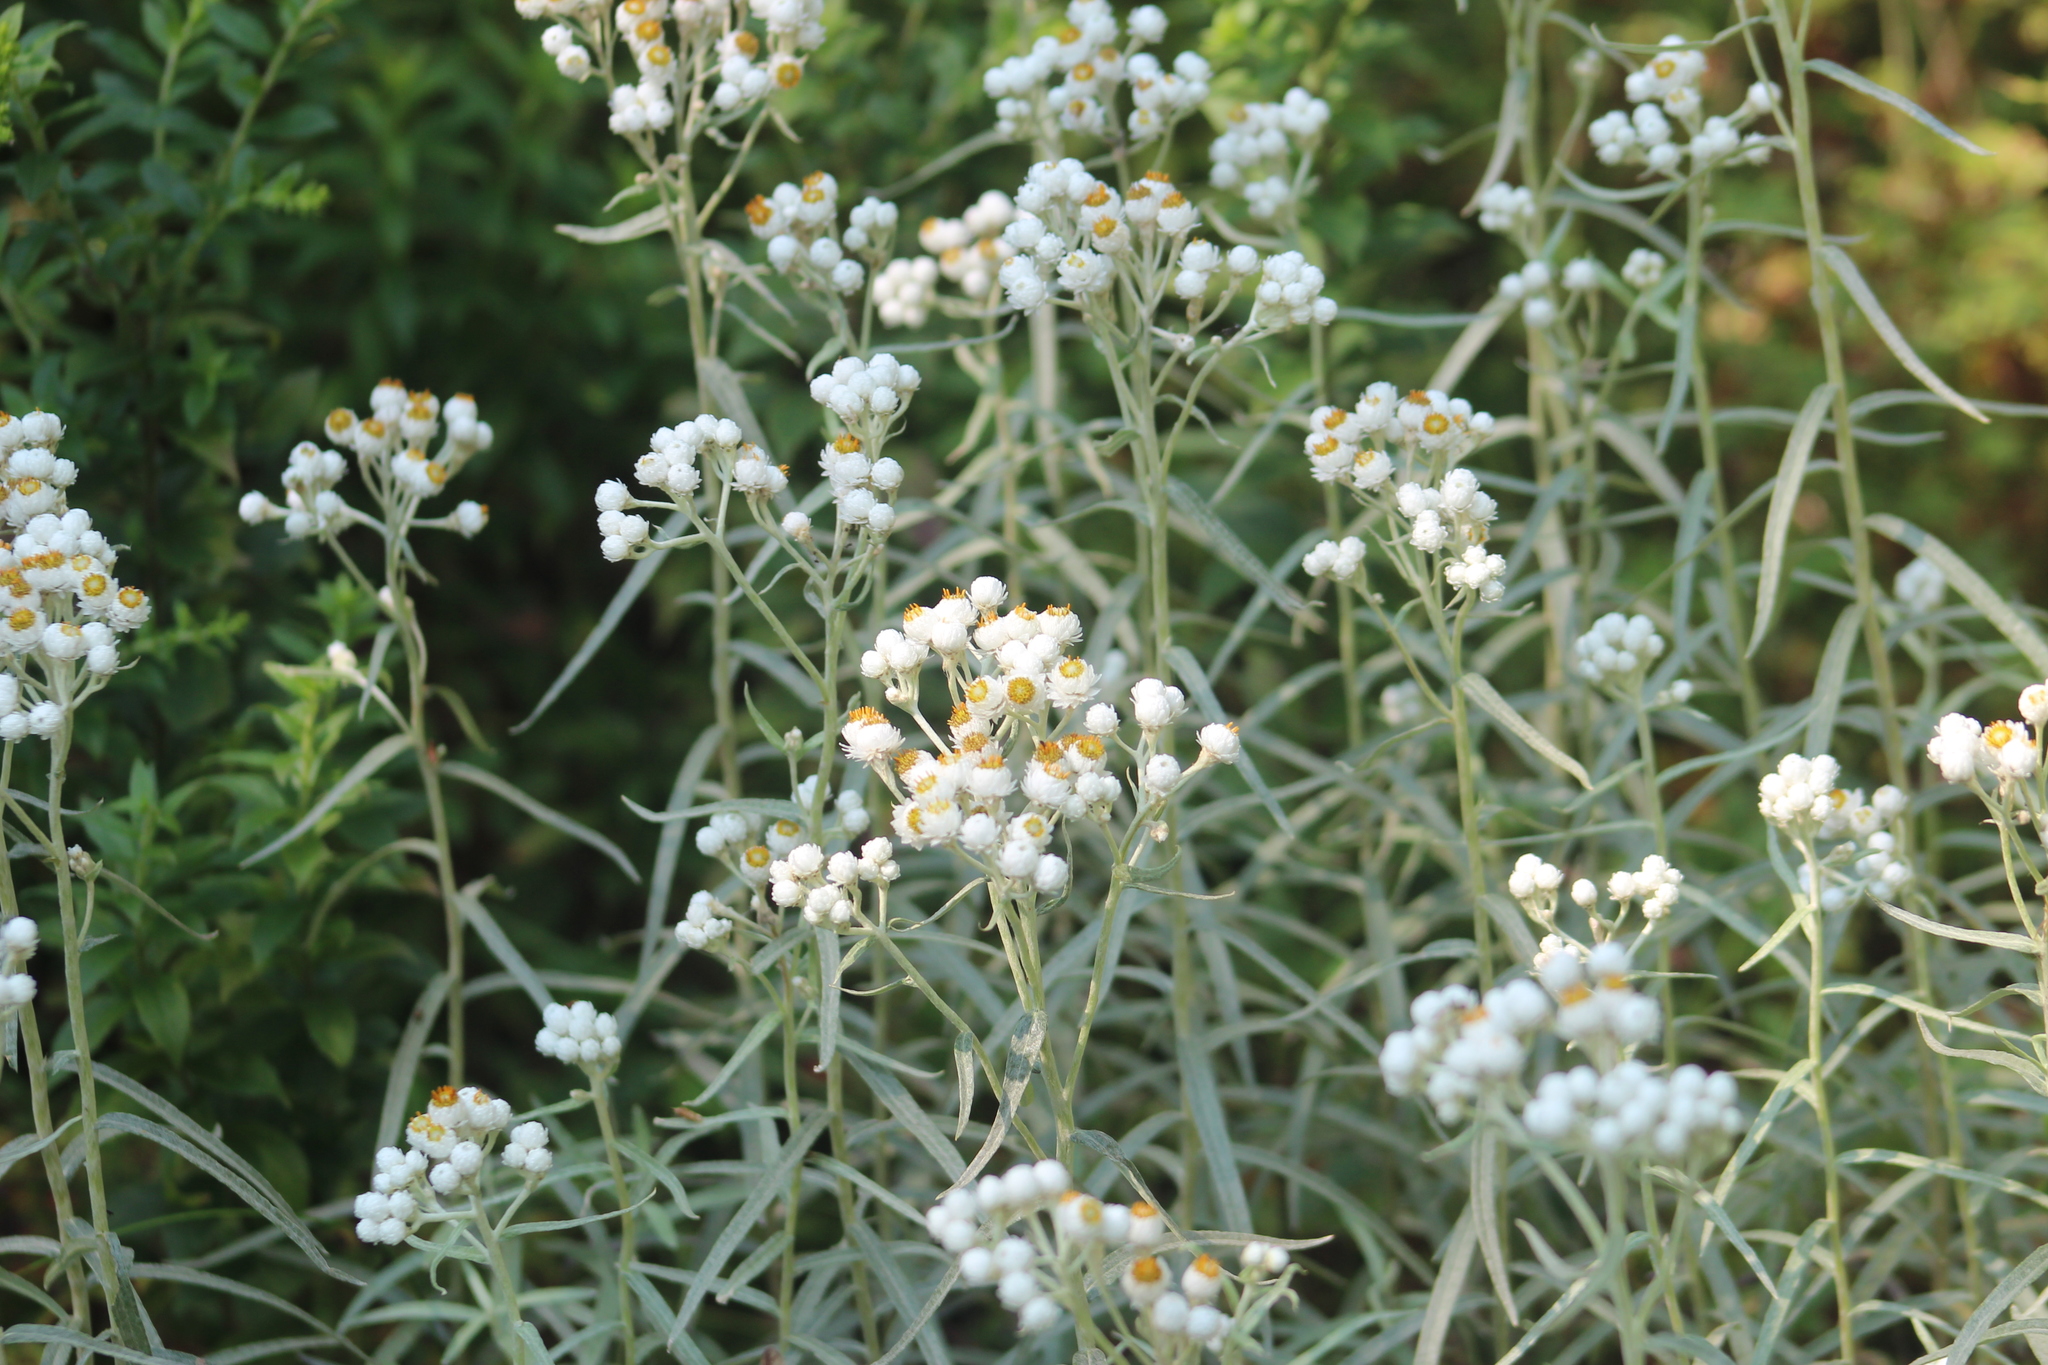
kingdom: Plantae
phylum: Tracheophyta
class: Magnoliopsida
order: Asterales
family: Asteraceae
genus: Anaphalis
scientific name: Anaphalis margaritacea
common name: Pearly everlasting
